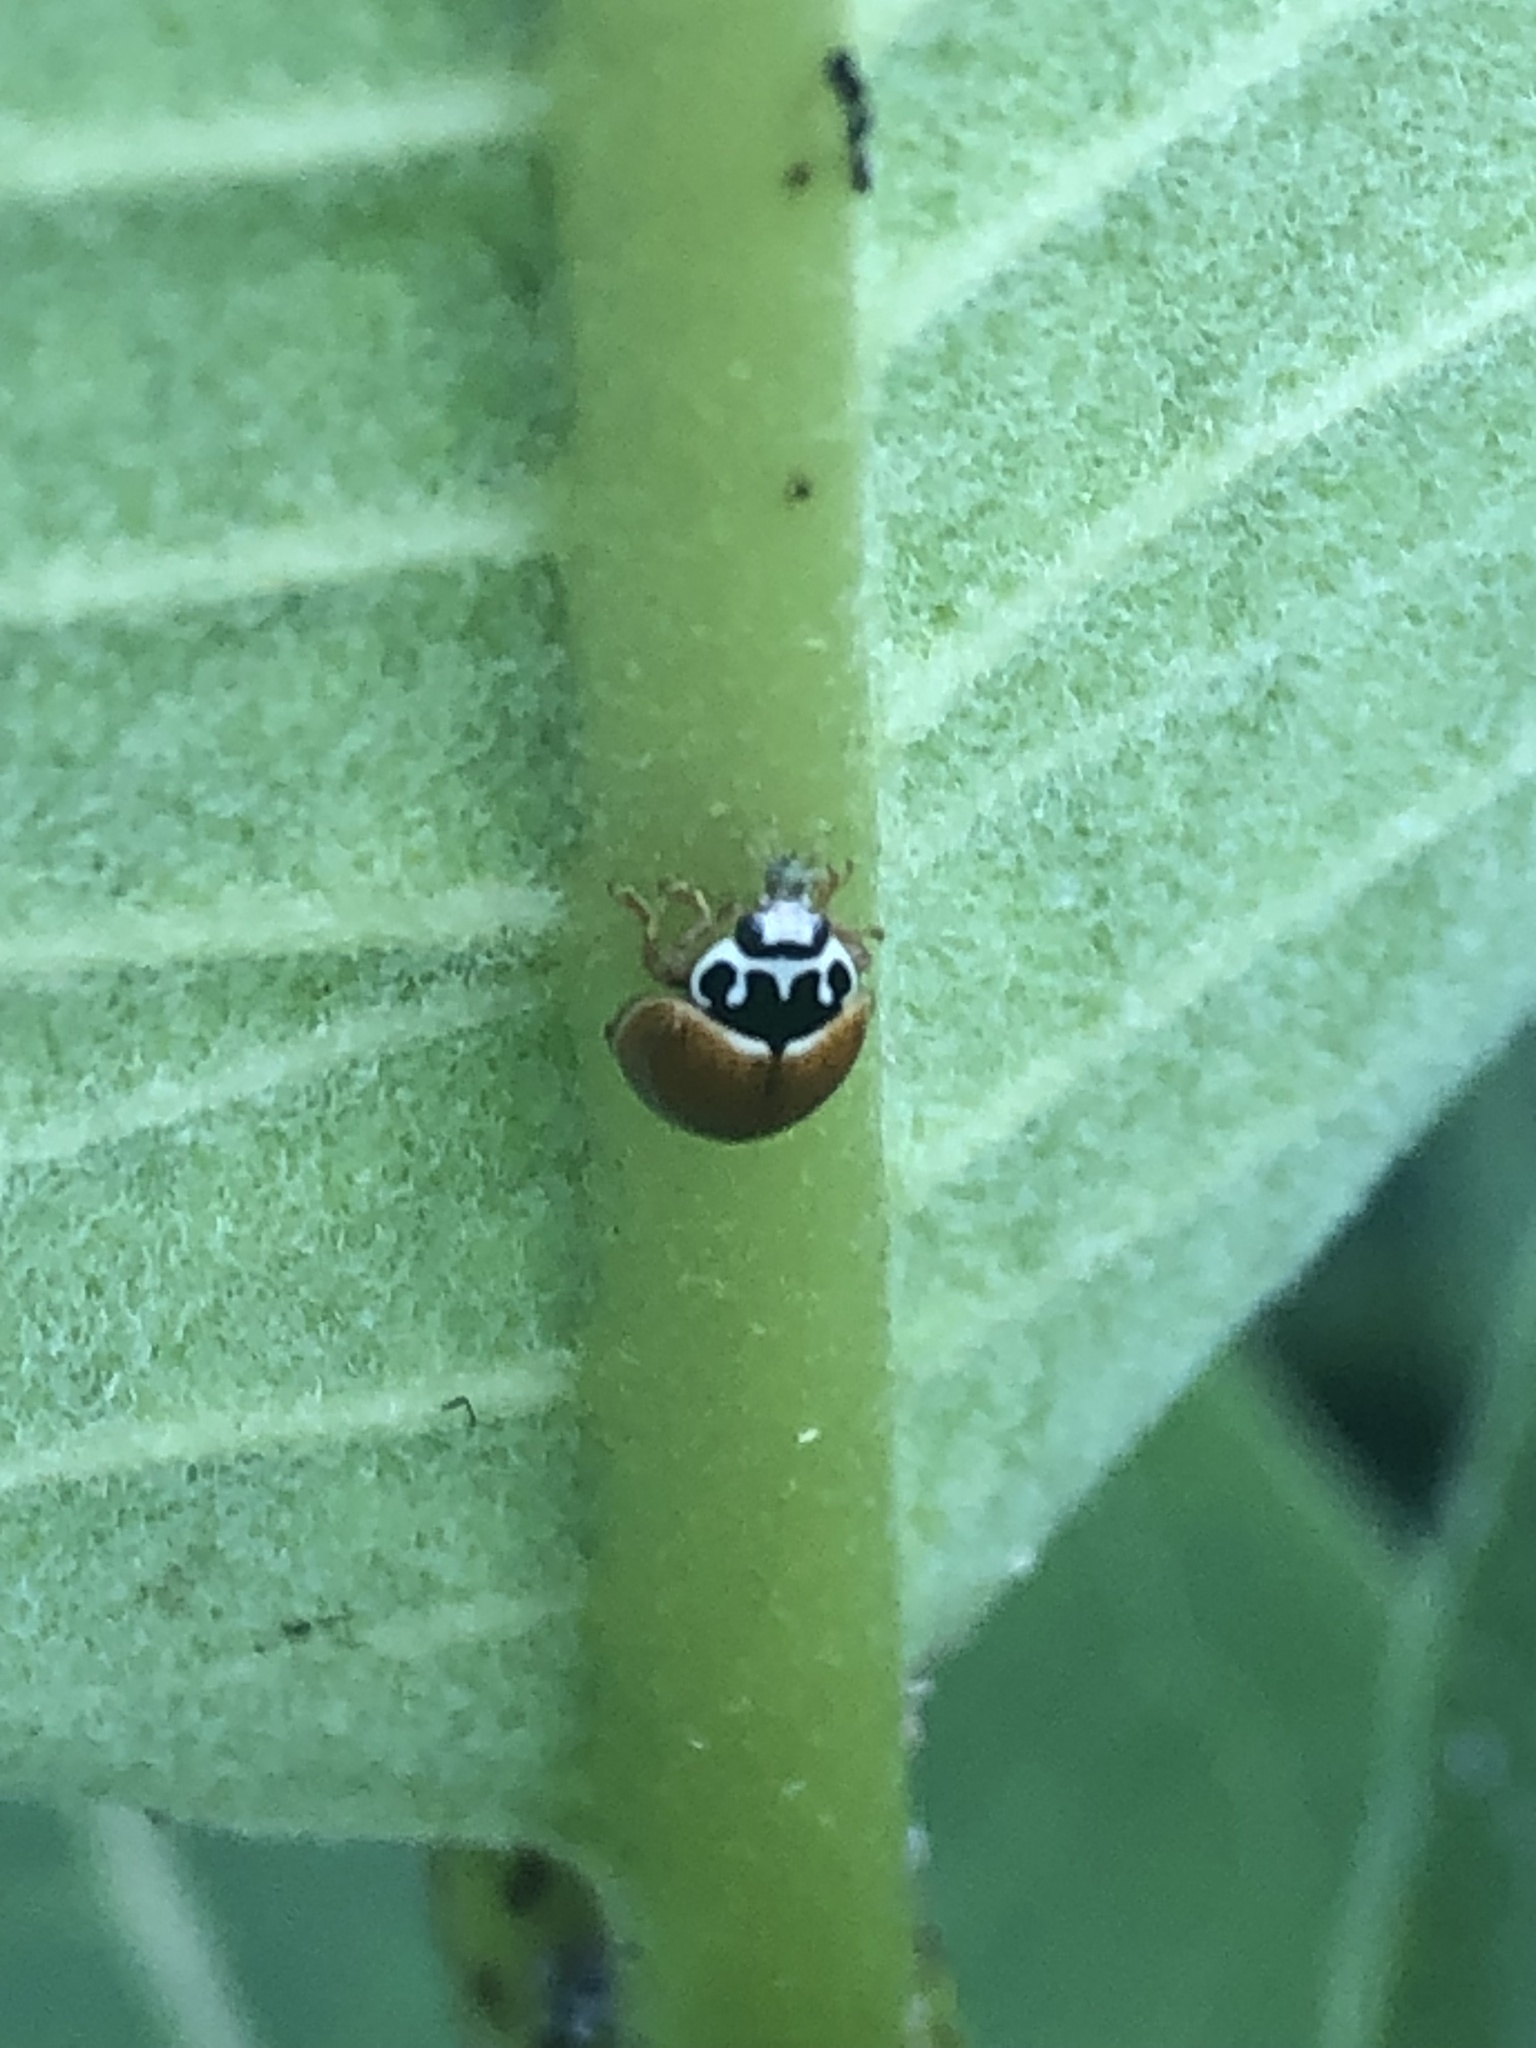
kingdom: Animalia
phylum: Arthropoda
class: Insecta
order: Coleoptera
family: Coccinellidae
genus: Cycloneda
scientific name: Cycloneda munda
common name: Polished lady beetle
